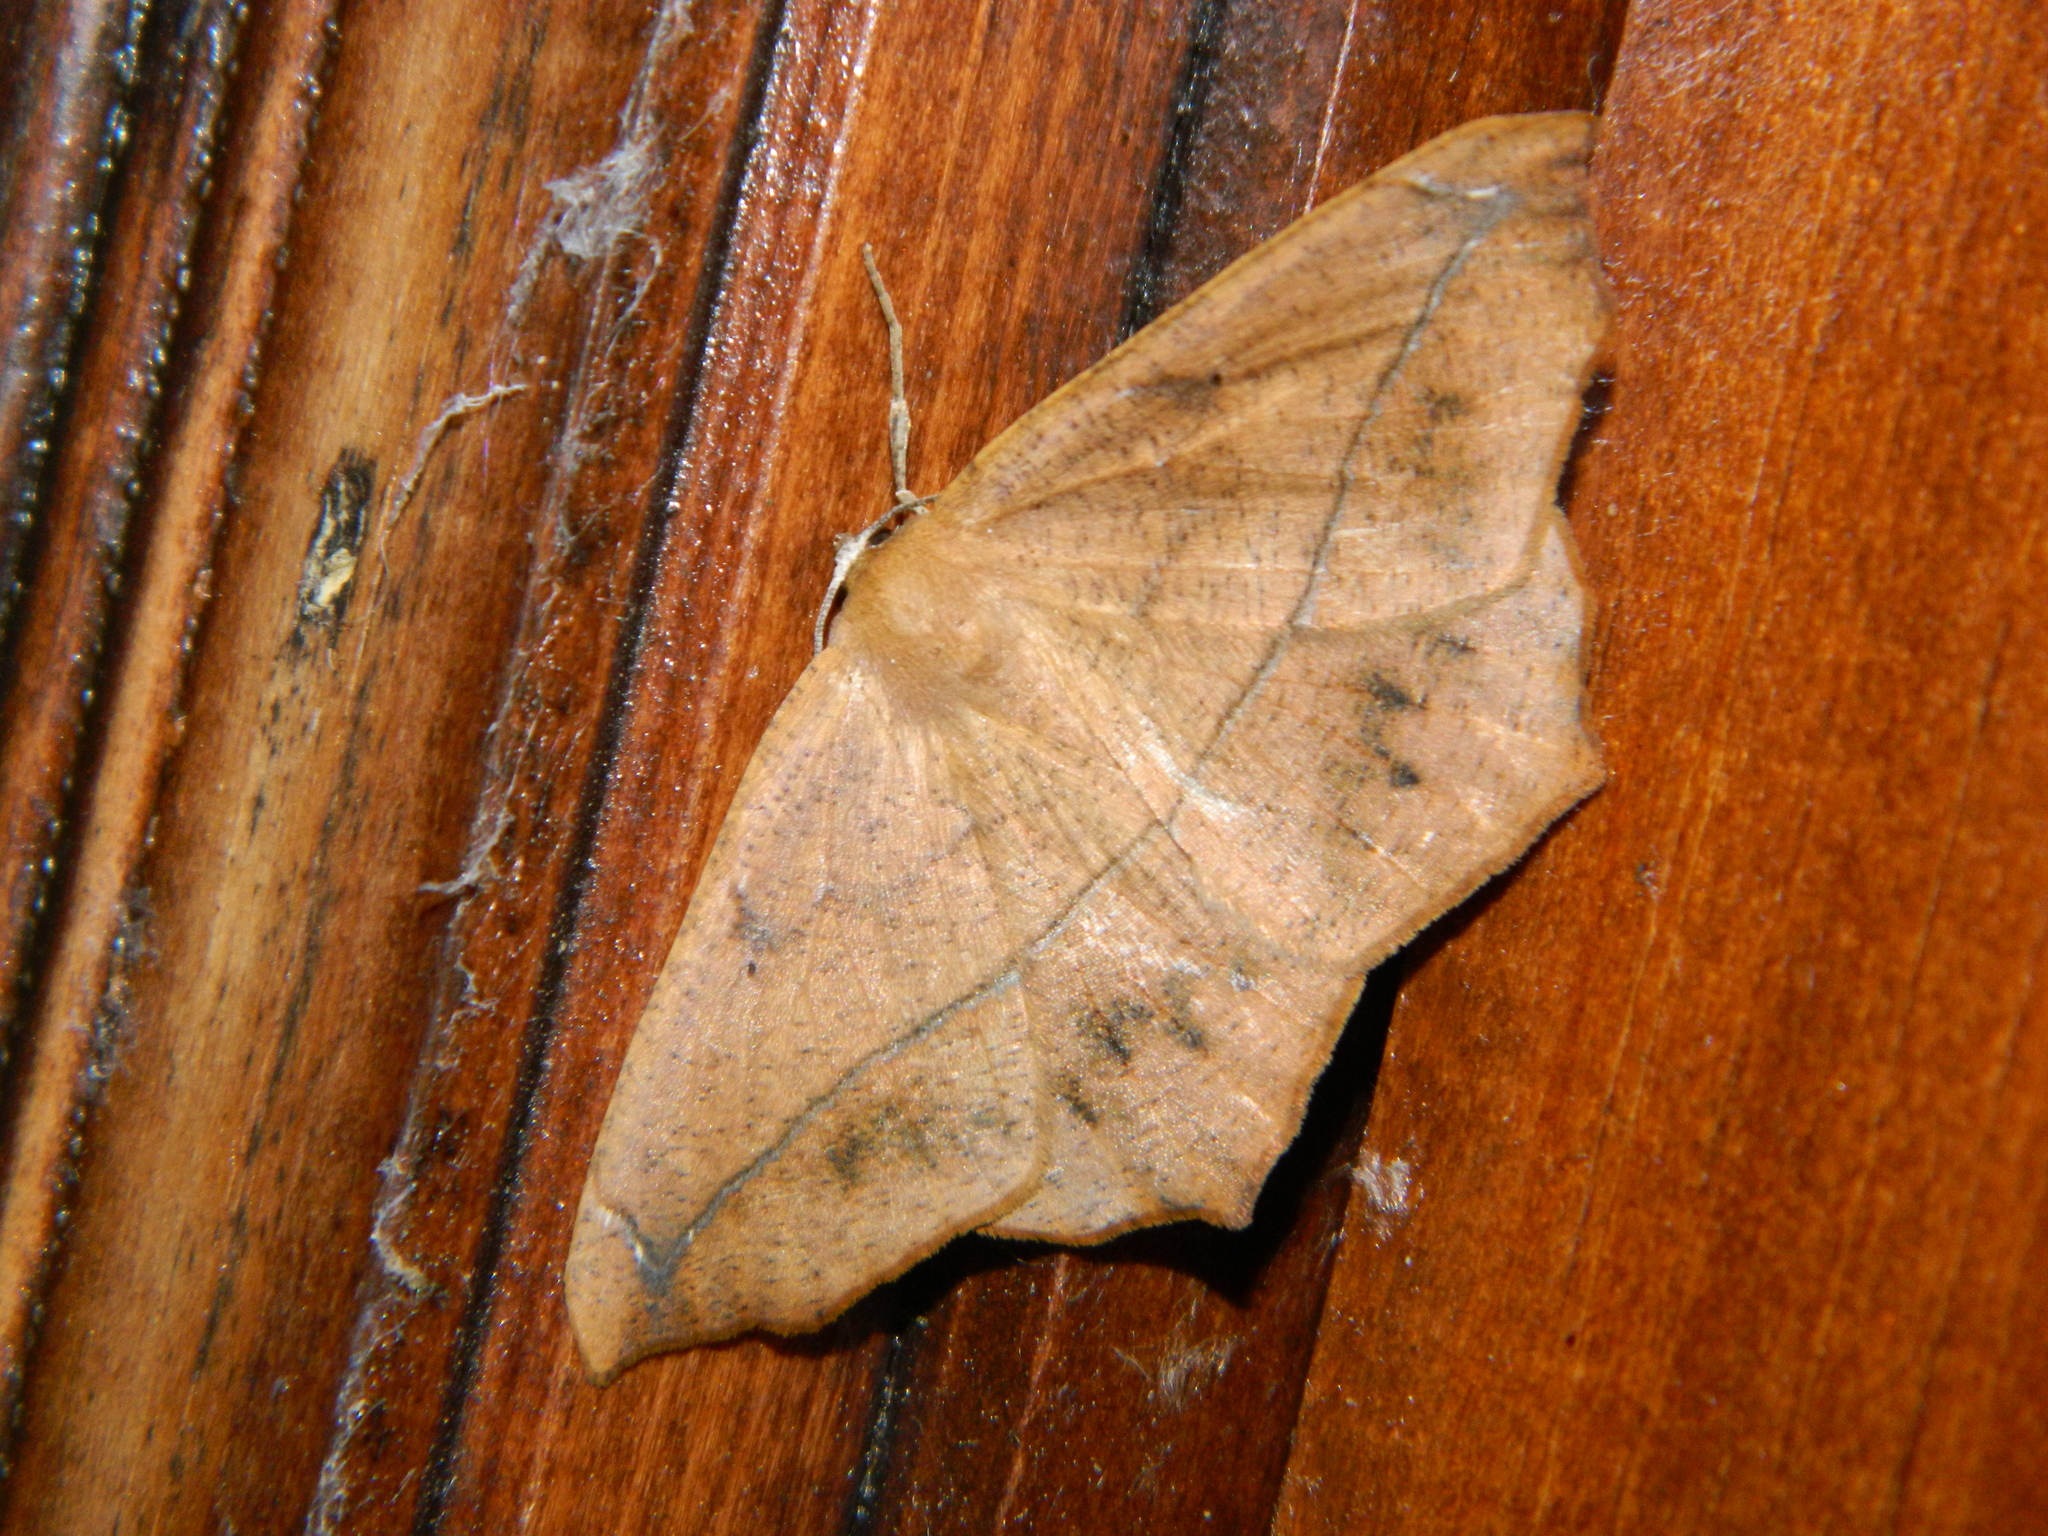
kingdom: Animalia
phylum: Arthropoda
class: Insecta
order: Lepidoptera
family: Geometridae
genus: Prochoerodes
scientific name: Prochoerodes lineola
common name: Large maple spanworm
